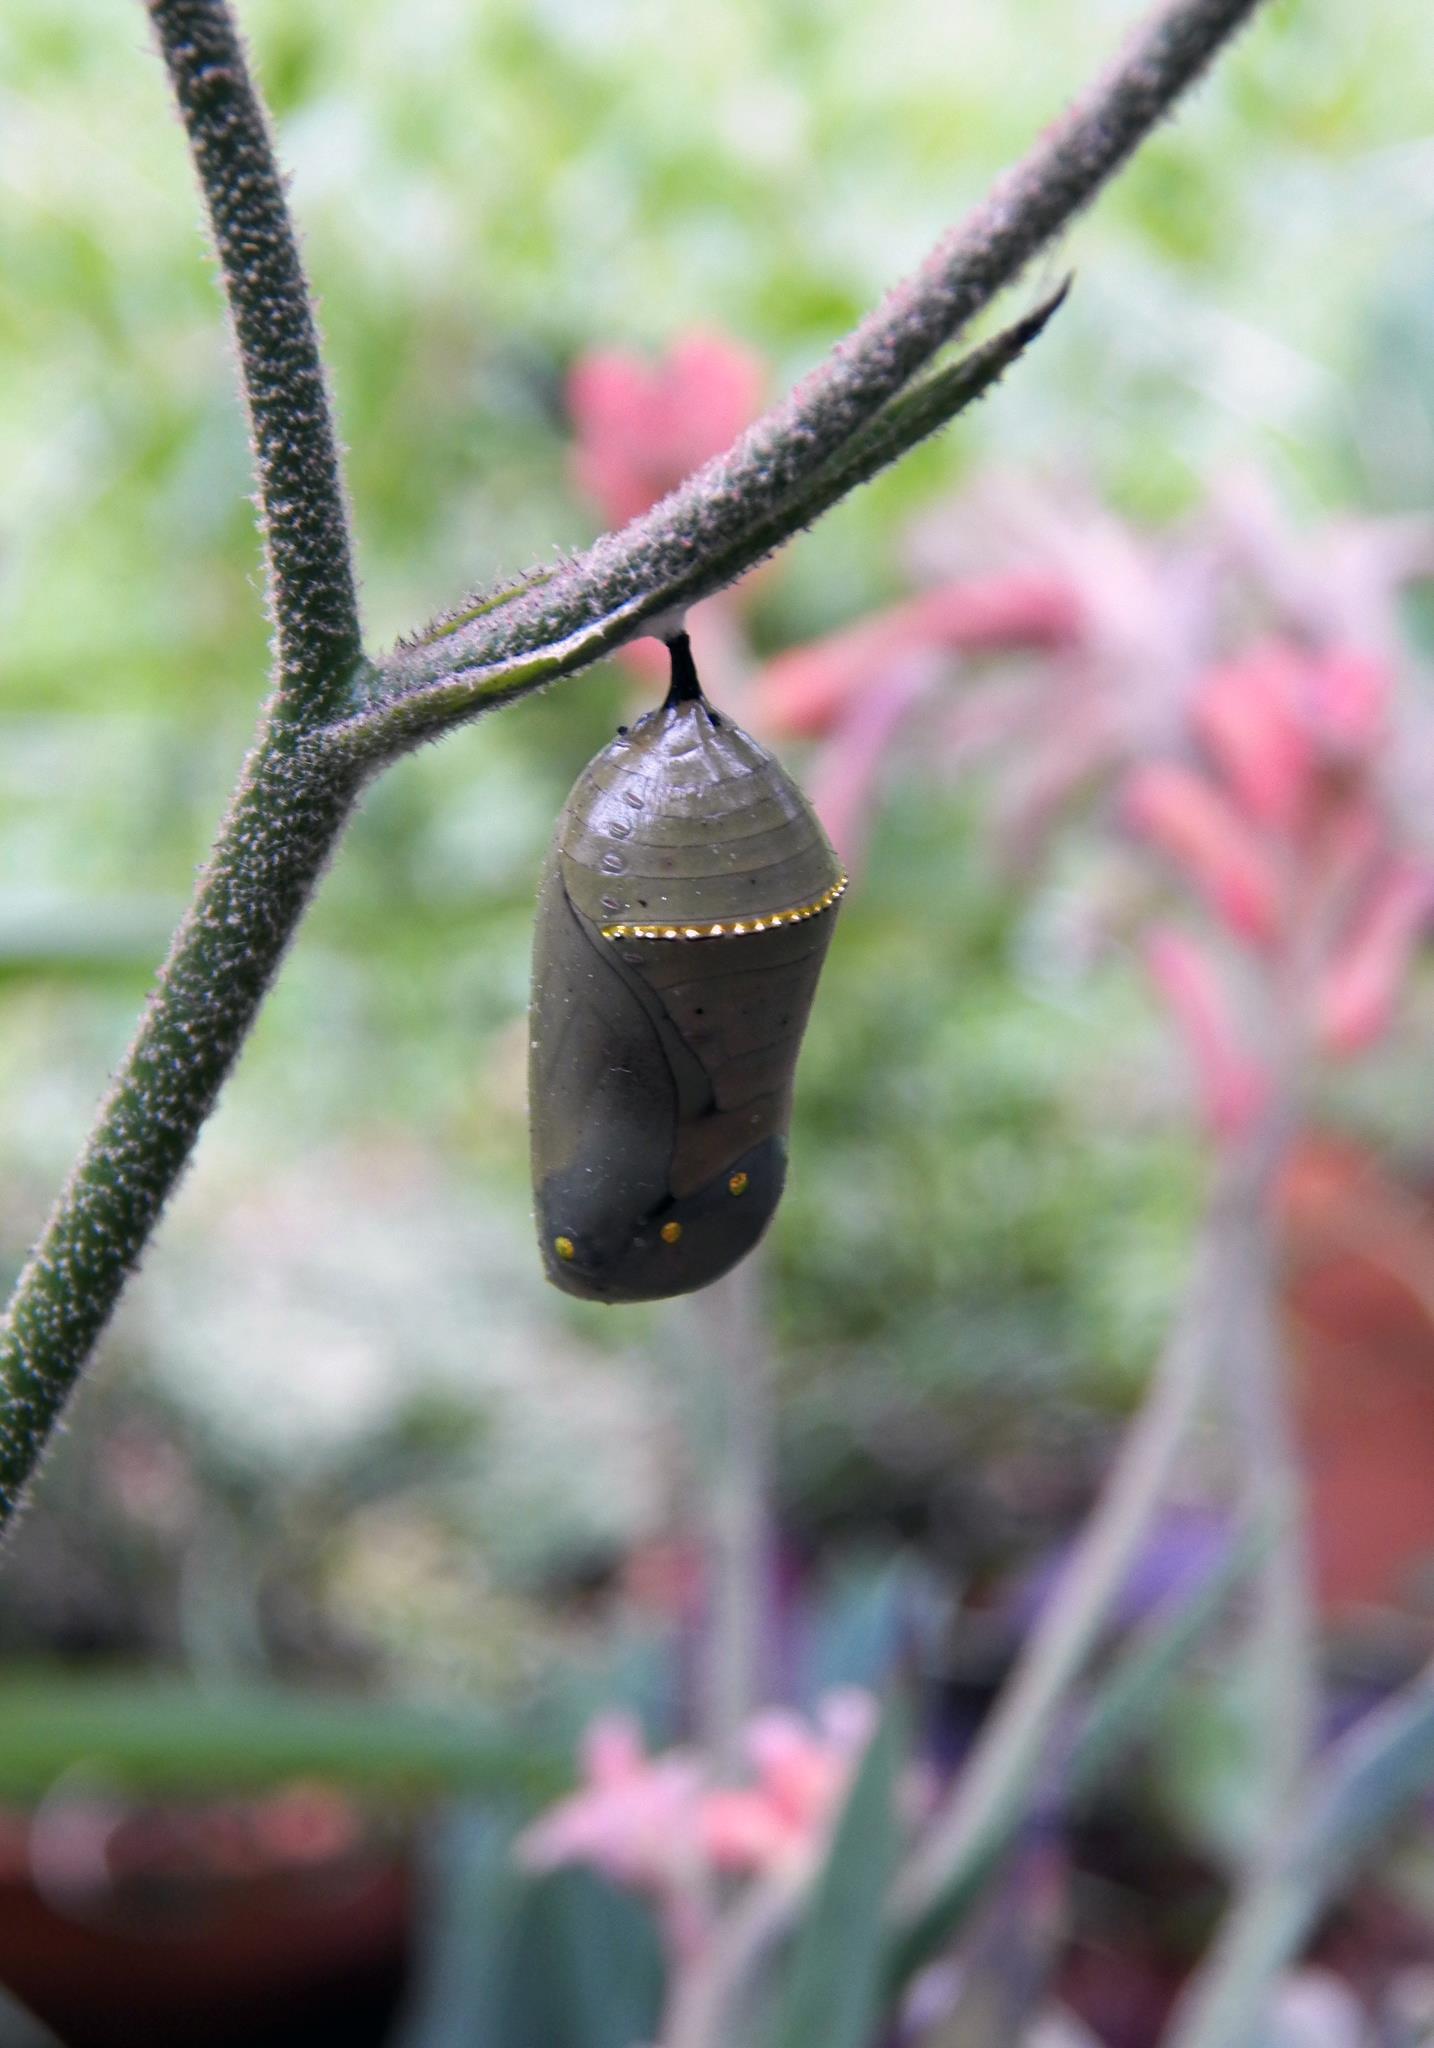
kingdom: Animalia
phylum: Arthropoda
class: Insecta
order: Lepidoptera
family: Nymphalidae
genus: Danaus
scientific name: Danaus plexippus
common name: Monarch
